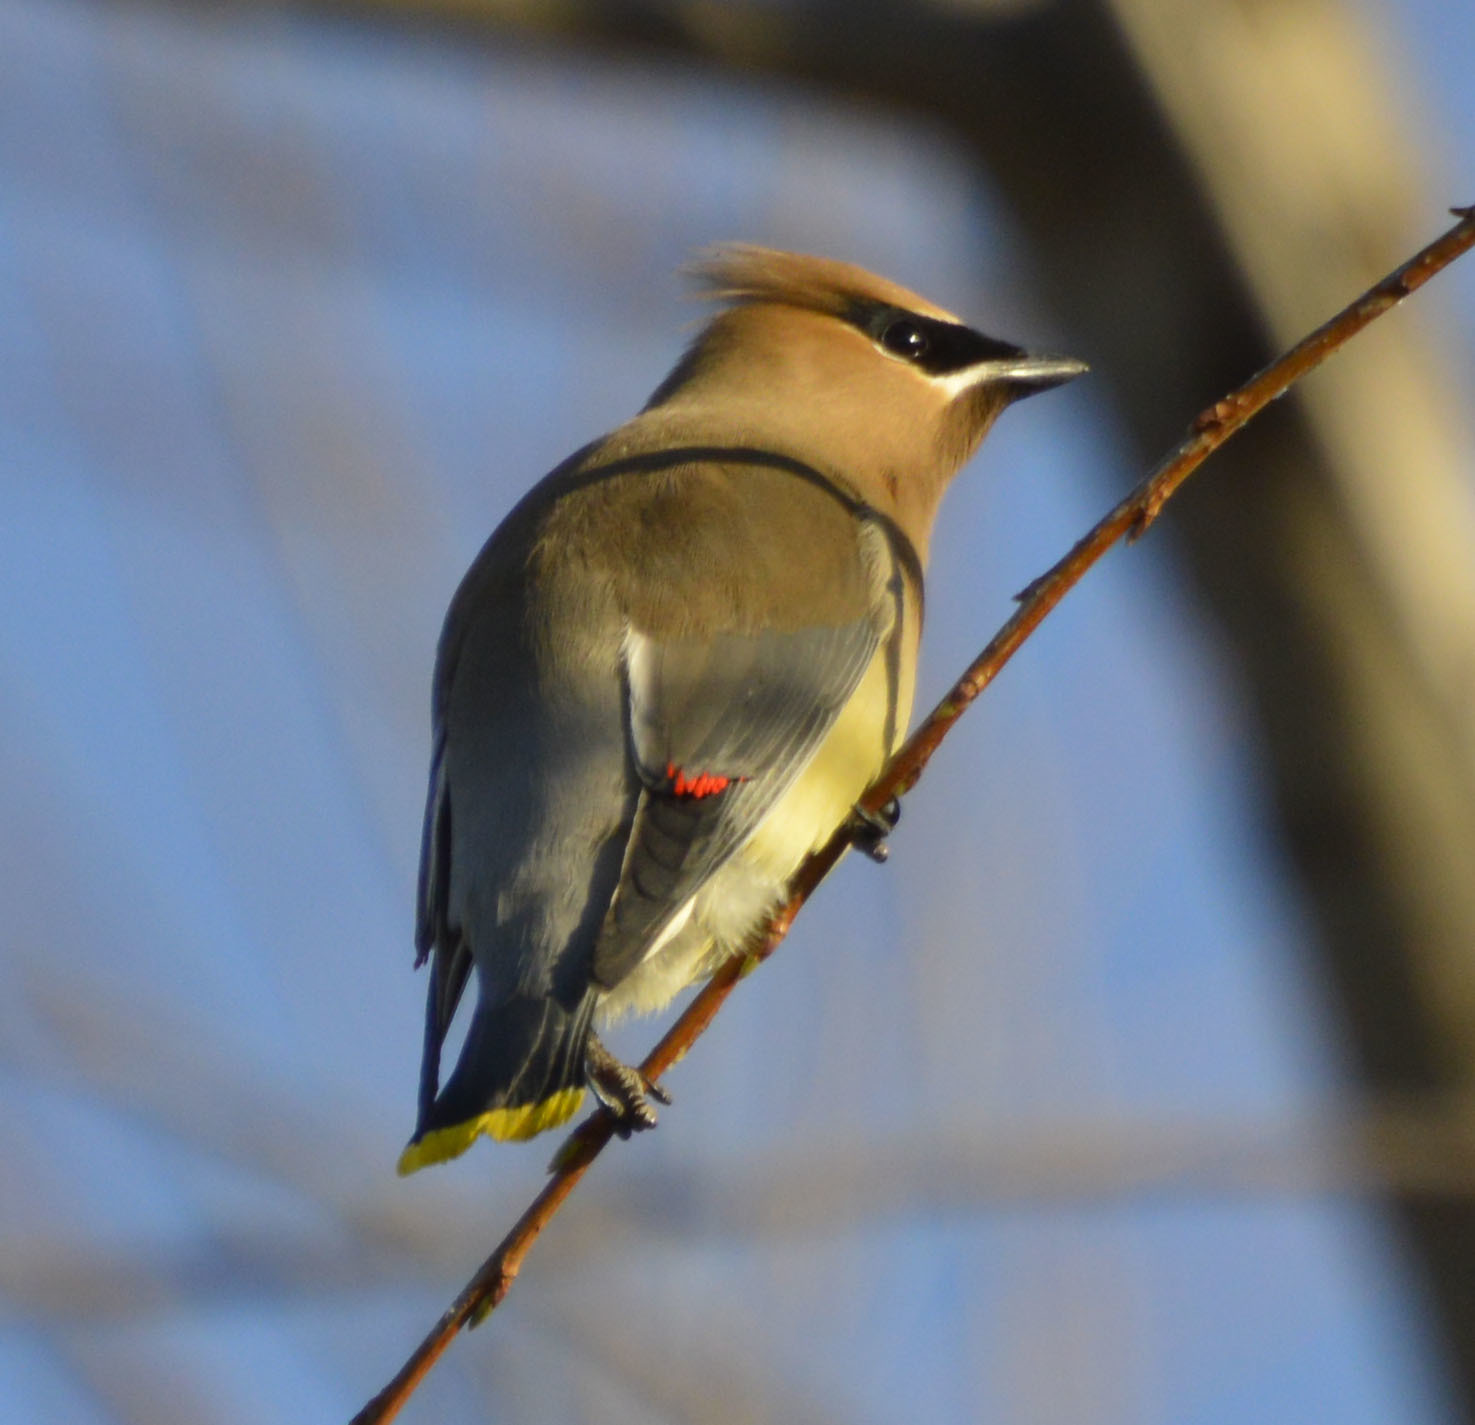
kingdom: Animalia
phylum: Chordata
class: Aves
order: Passeriformes
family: Bombycillidae
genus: Bombycilla
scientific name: Bombycilla cedrorum
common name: Cedar waxwing
